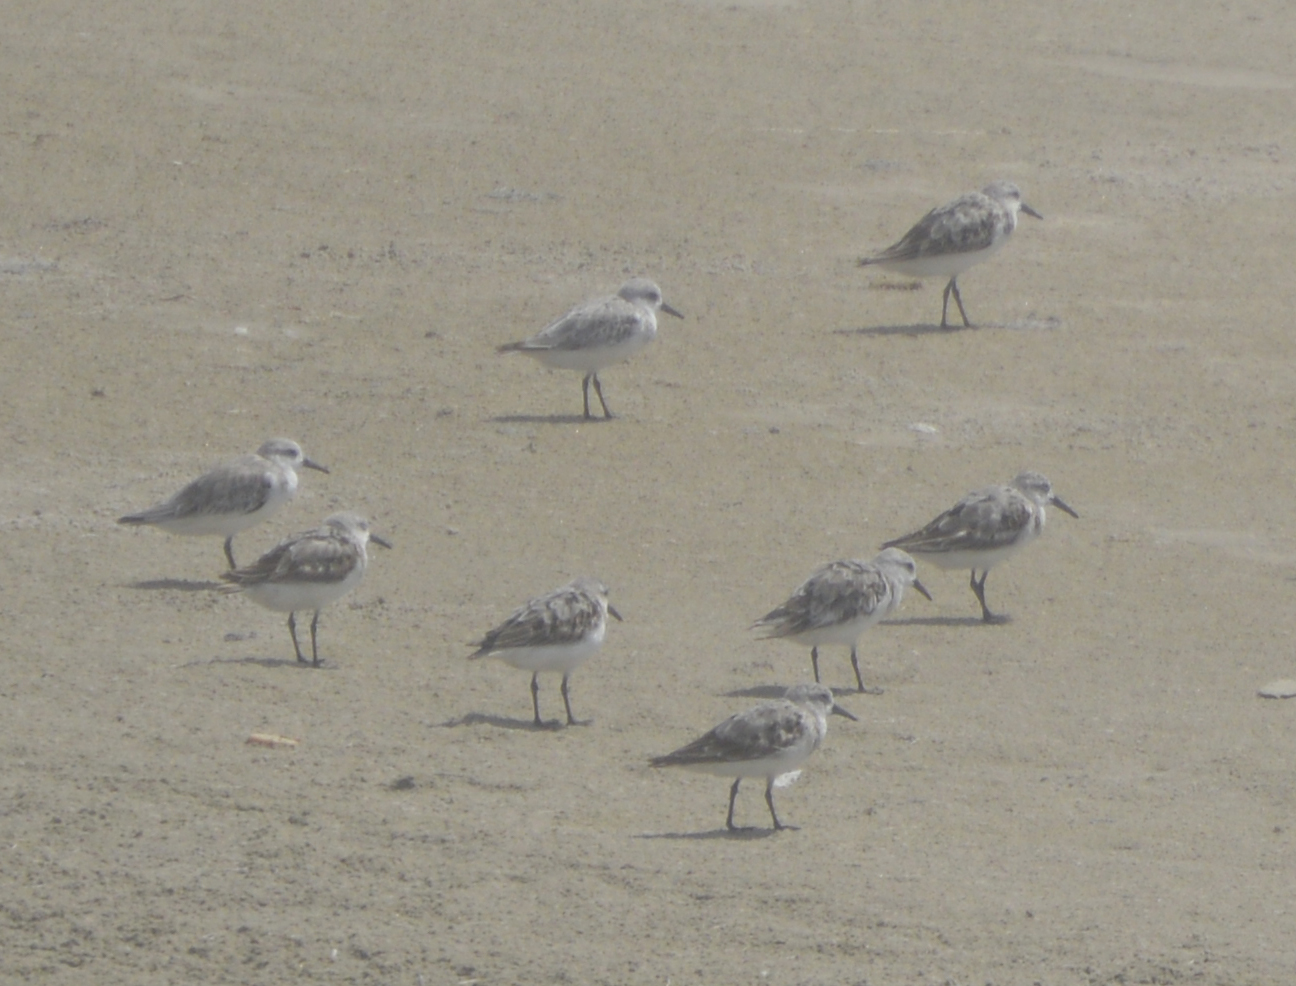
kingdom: Animalia
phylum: Chordata
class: Aves
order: Charadriiformes
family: Scolopacidae
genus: Calidris
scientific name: Calidris alba
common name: Sanderling
